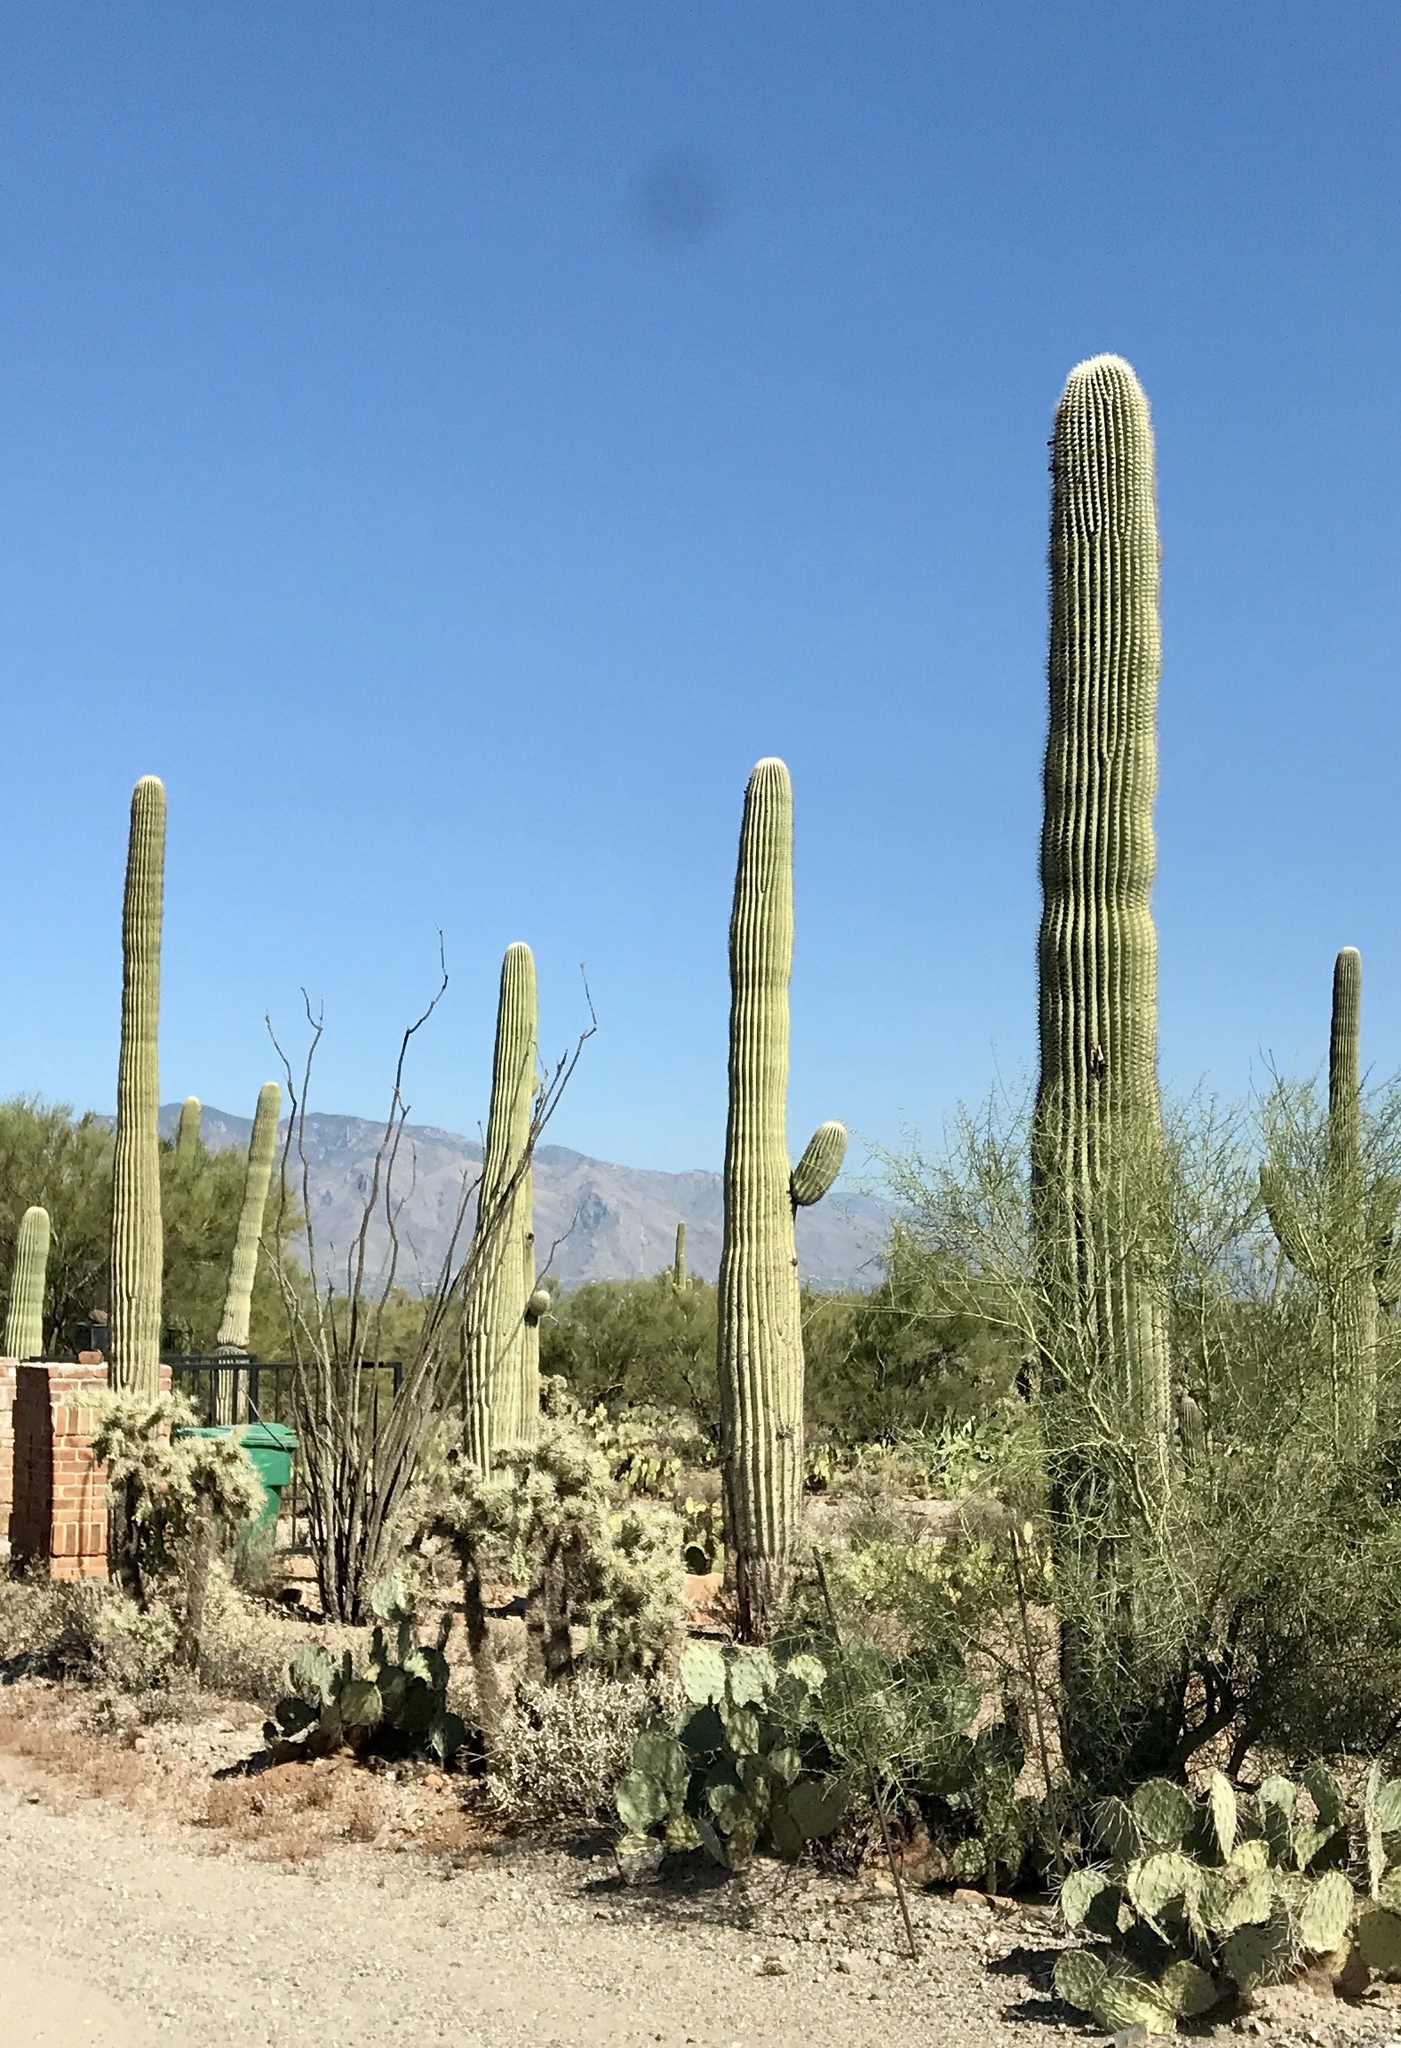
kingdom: Plantae
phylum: Tracheophyta
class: Magnoliopsida
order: Caryophyllales
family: Cactaceae
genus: Carnegiea
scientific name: Carnegiea gigantea
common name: Saguaro
